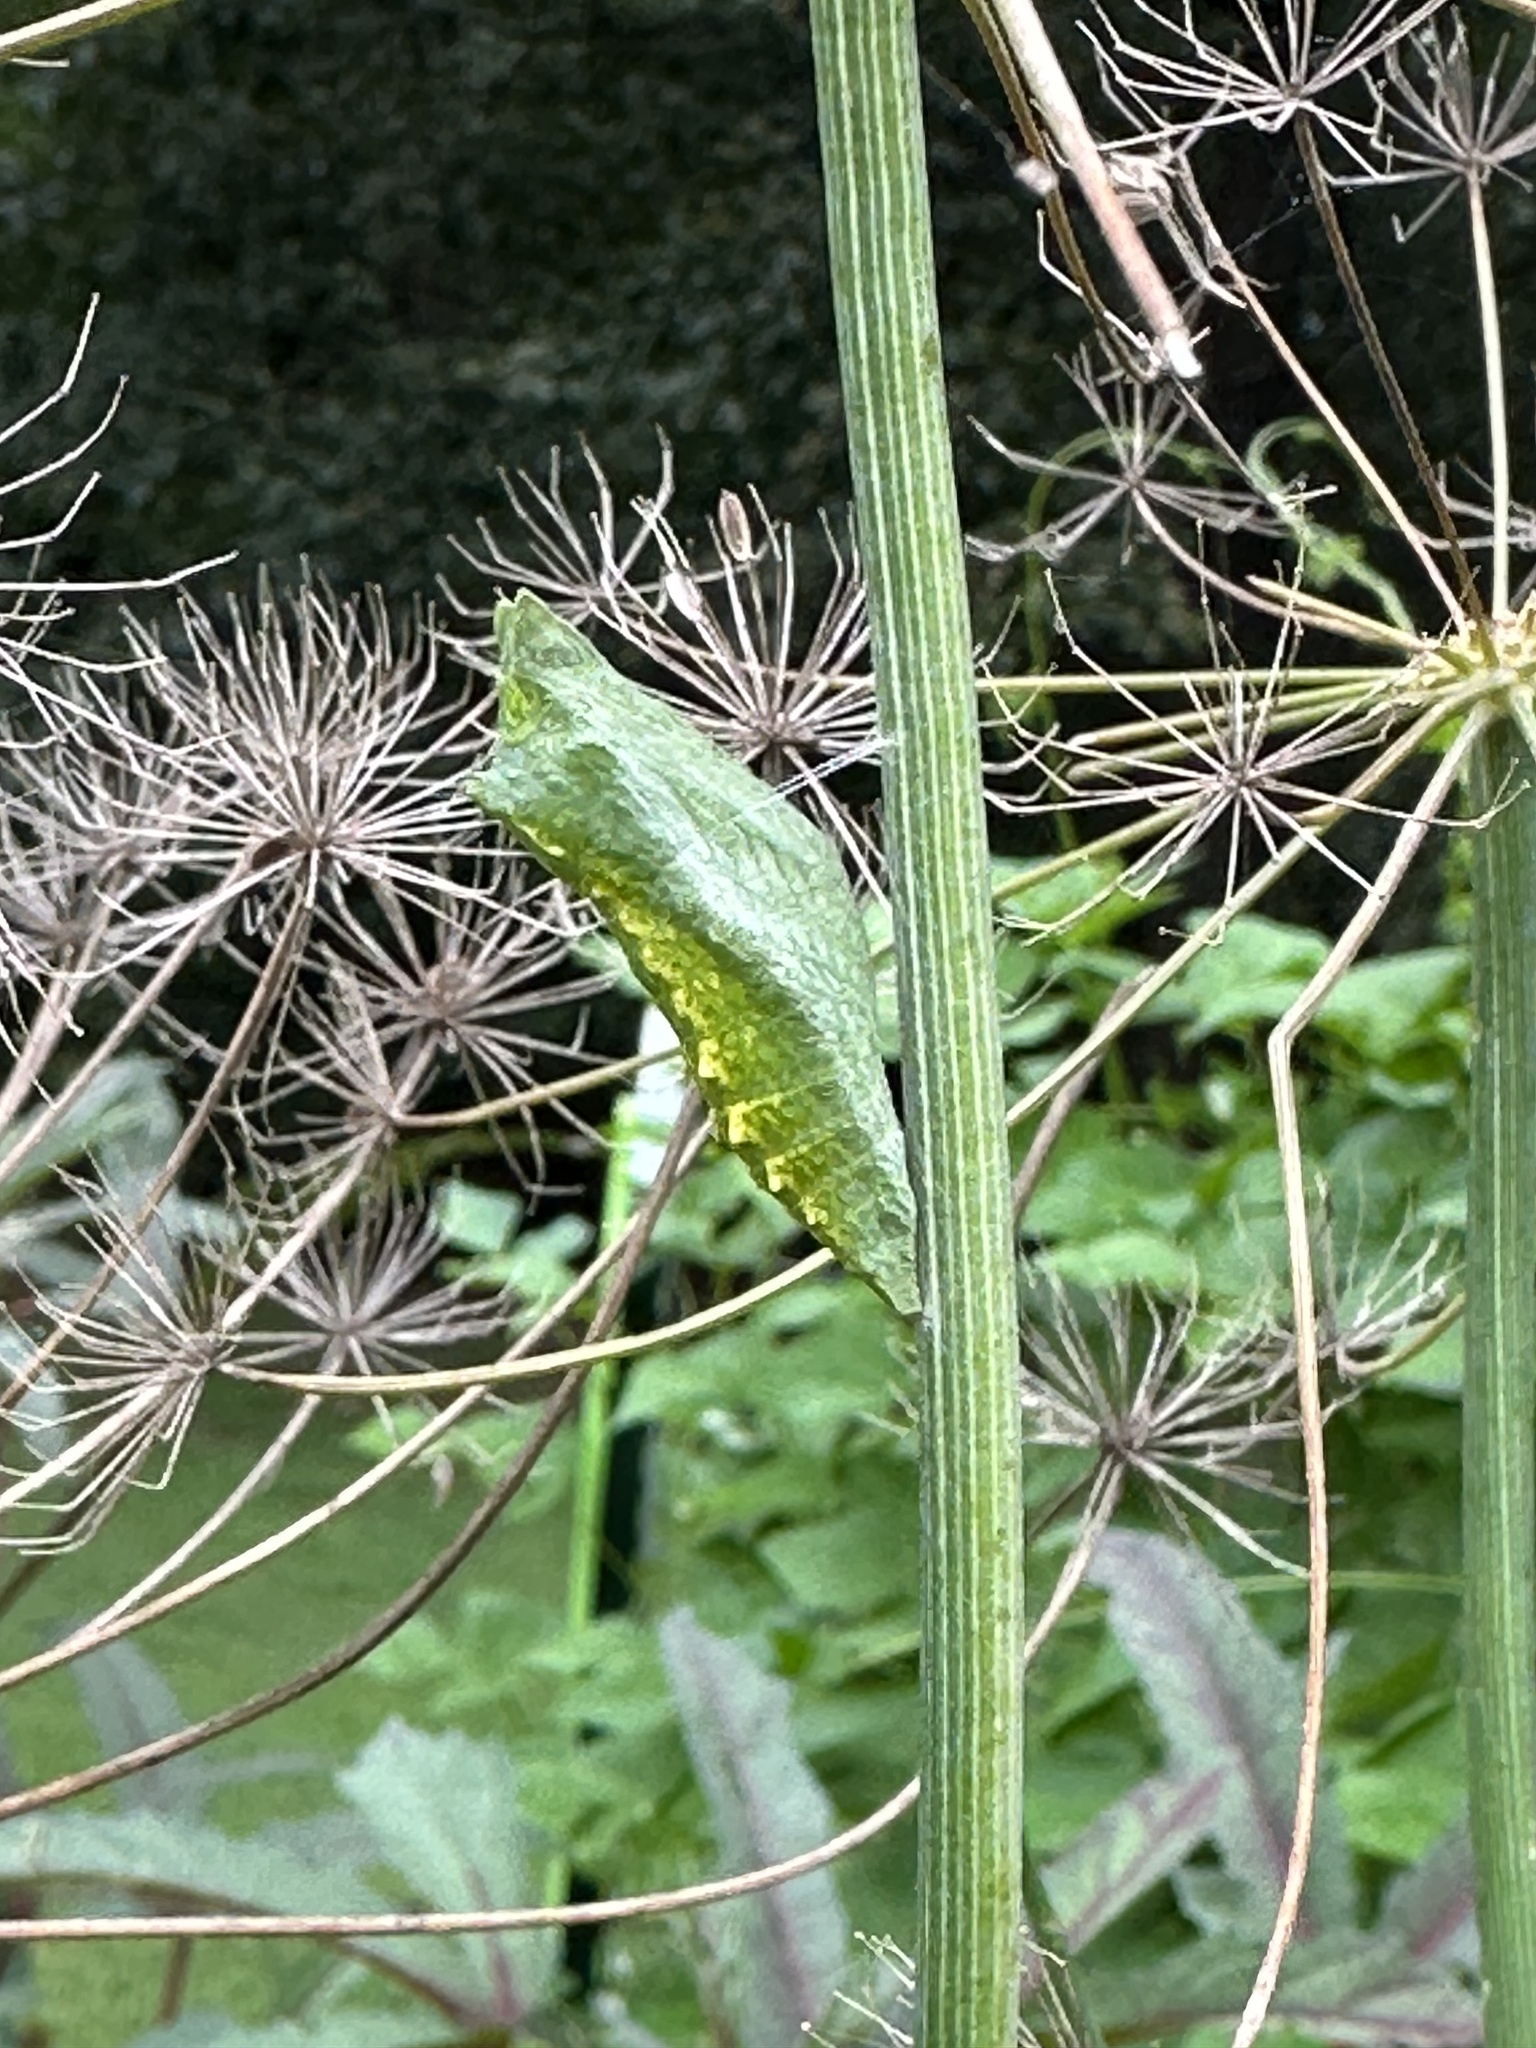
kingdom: Animalia
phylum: Arthropoda
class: Insecta
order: Lepidoptera
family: Papilionidae
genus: Papilio
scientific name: Papilio polyxenes
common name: Black swallowtail
